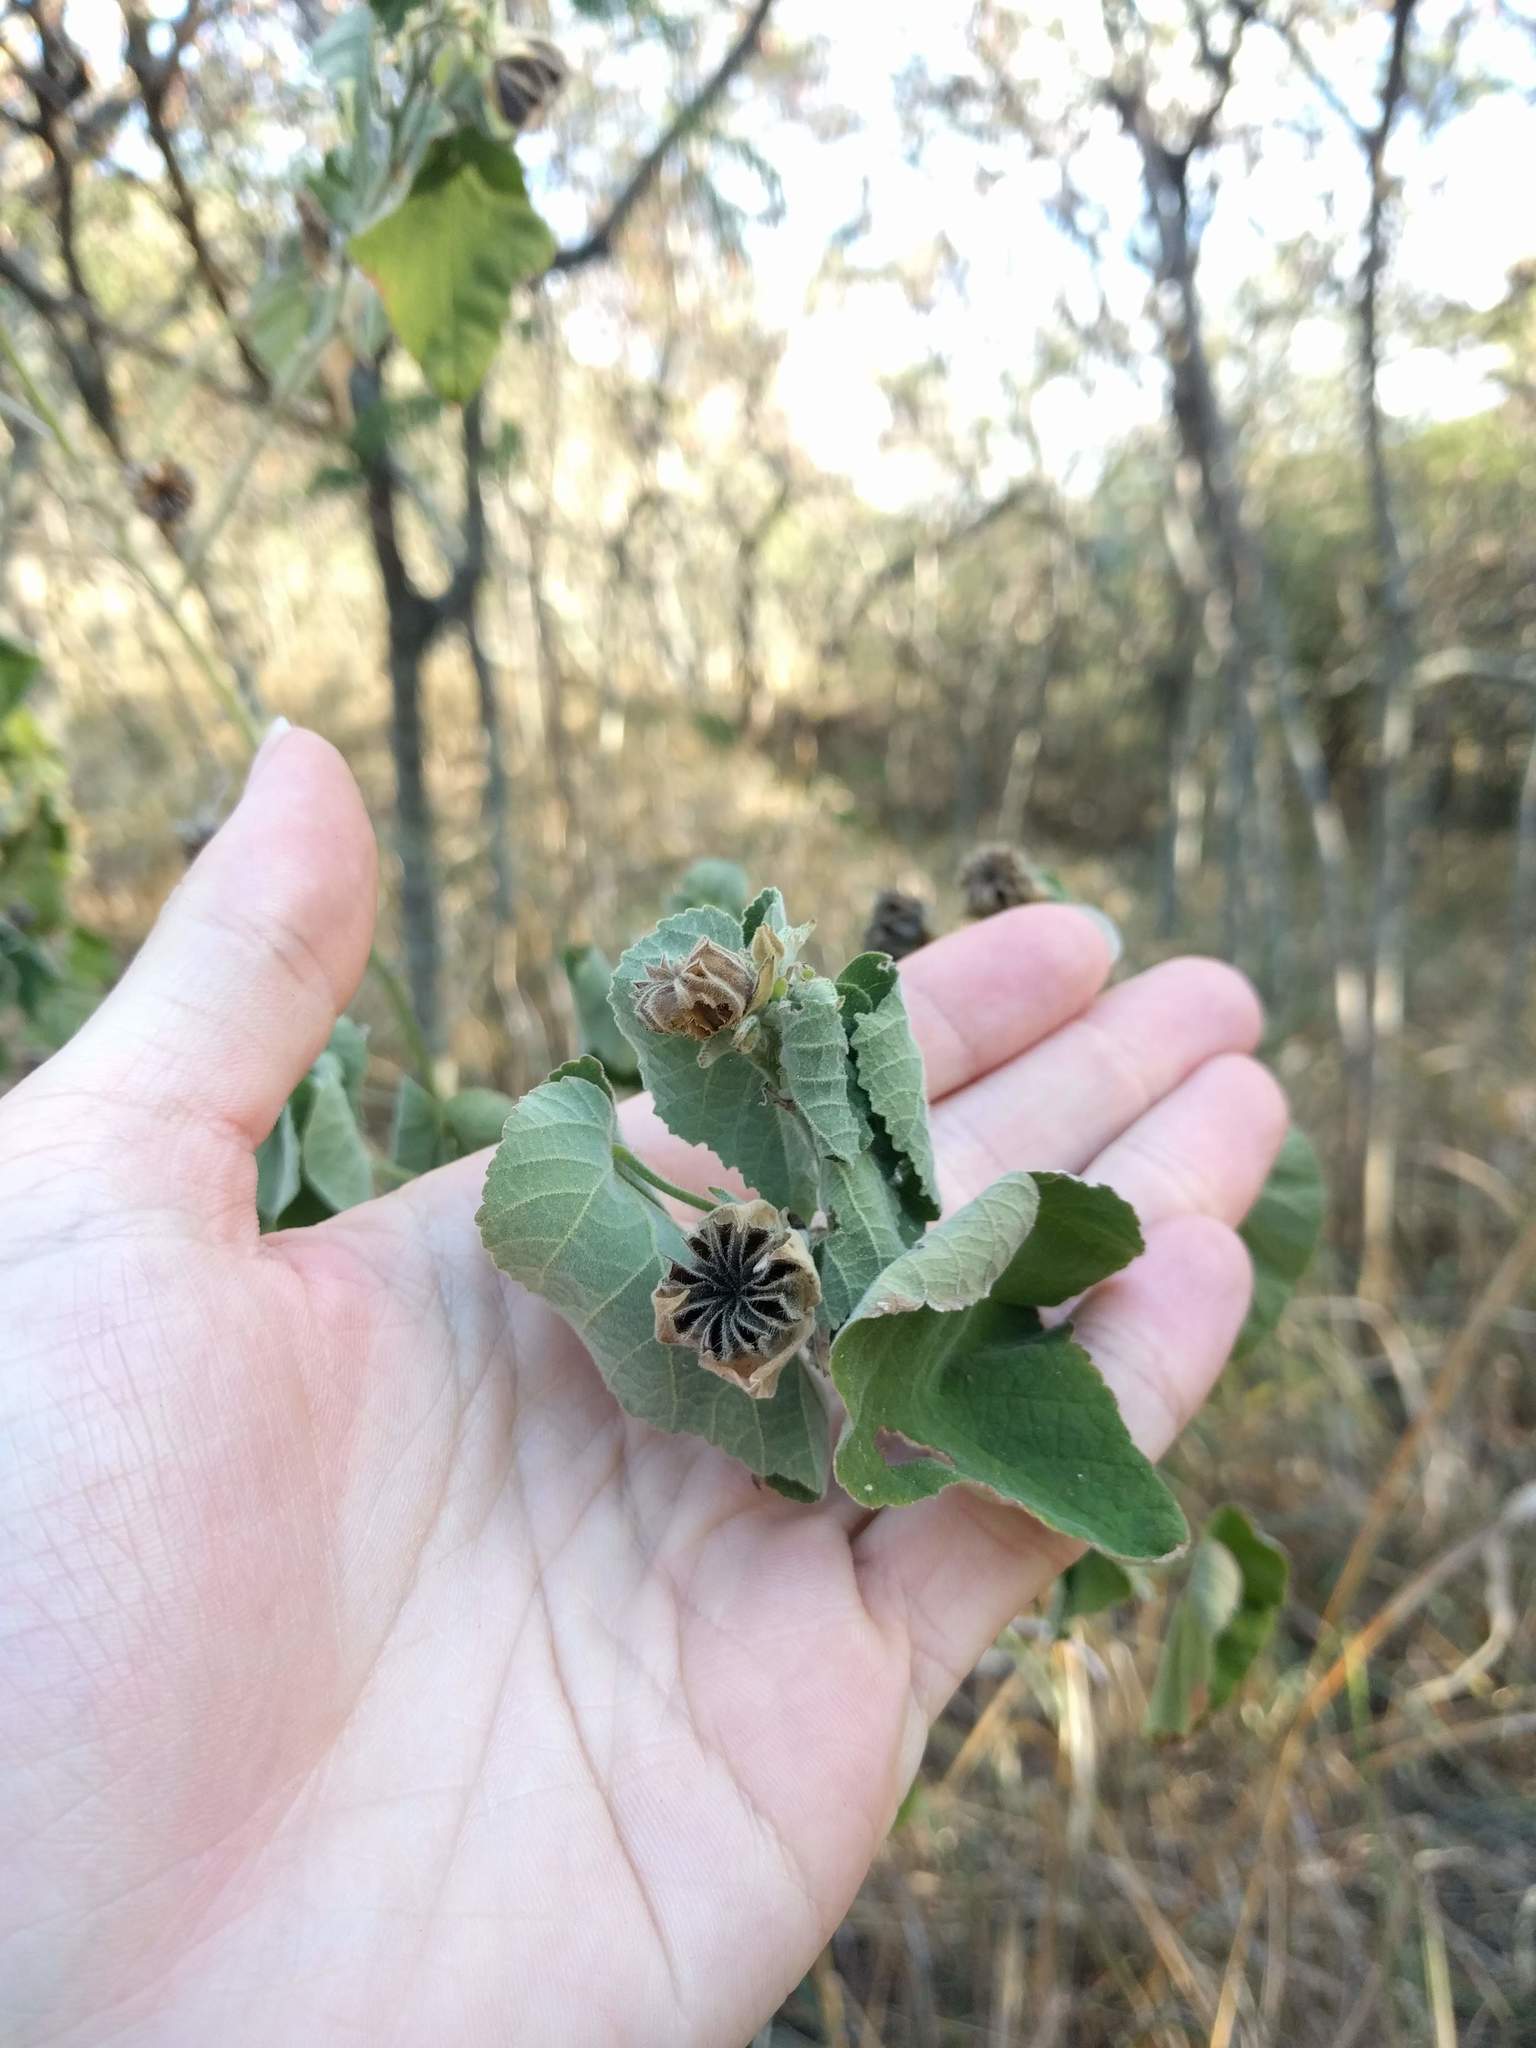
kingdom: Plantae
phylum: Tracheophyta
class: Magnoliopsida
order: Malvales
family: Malvaceae
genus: Abutilon
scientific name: Abutilon grandifolium
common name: Hairy abutilon
